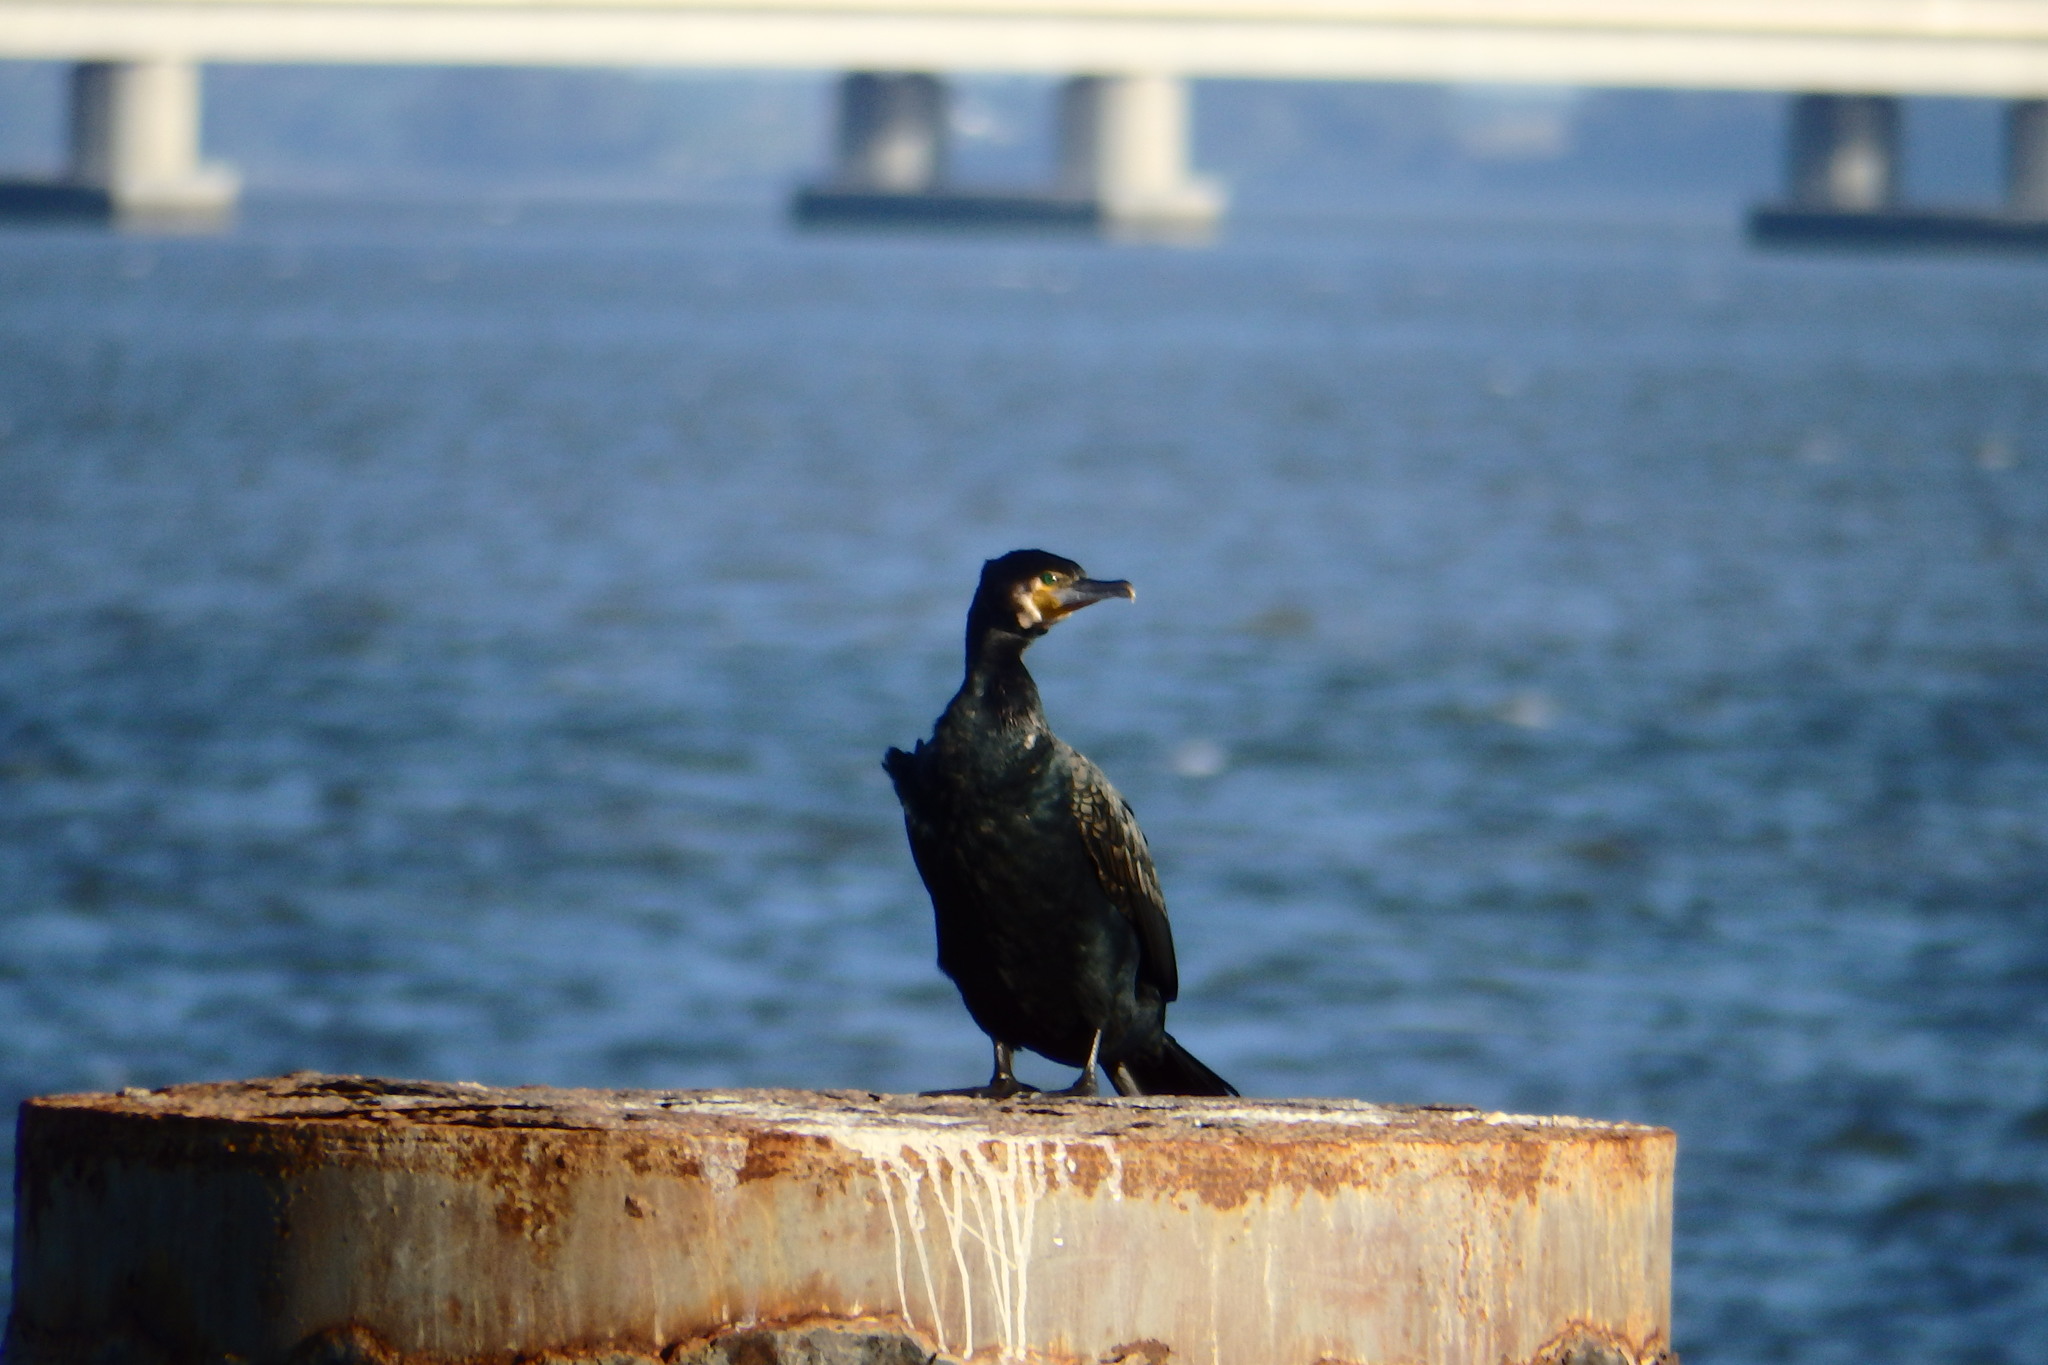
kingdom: Animalia
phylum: Chordata
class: Aves
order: Suliformes
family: Phalacrocoracidae
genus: Phalacrocorax
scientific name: Phalacrocorax carbo
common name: Great cormorant
